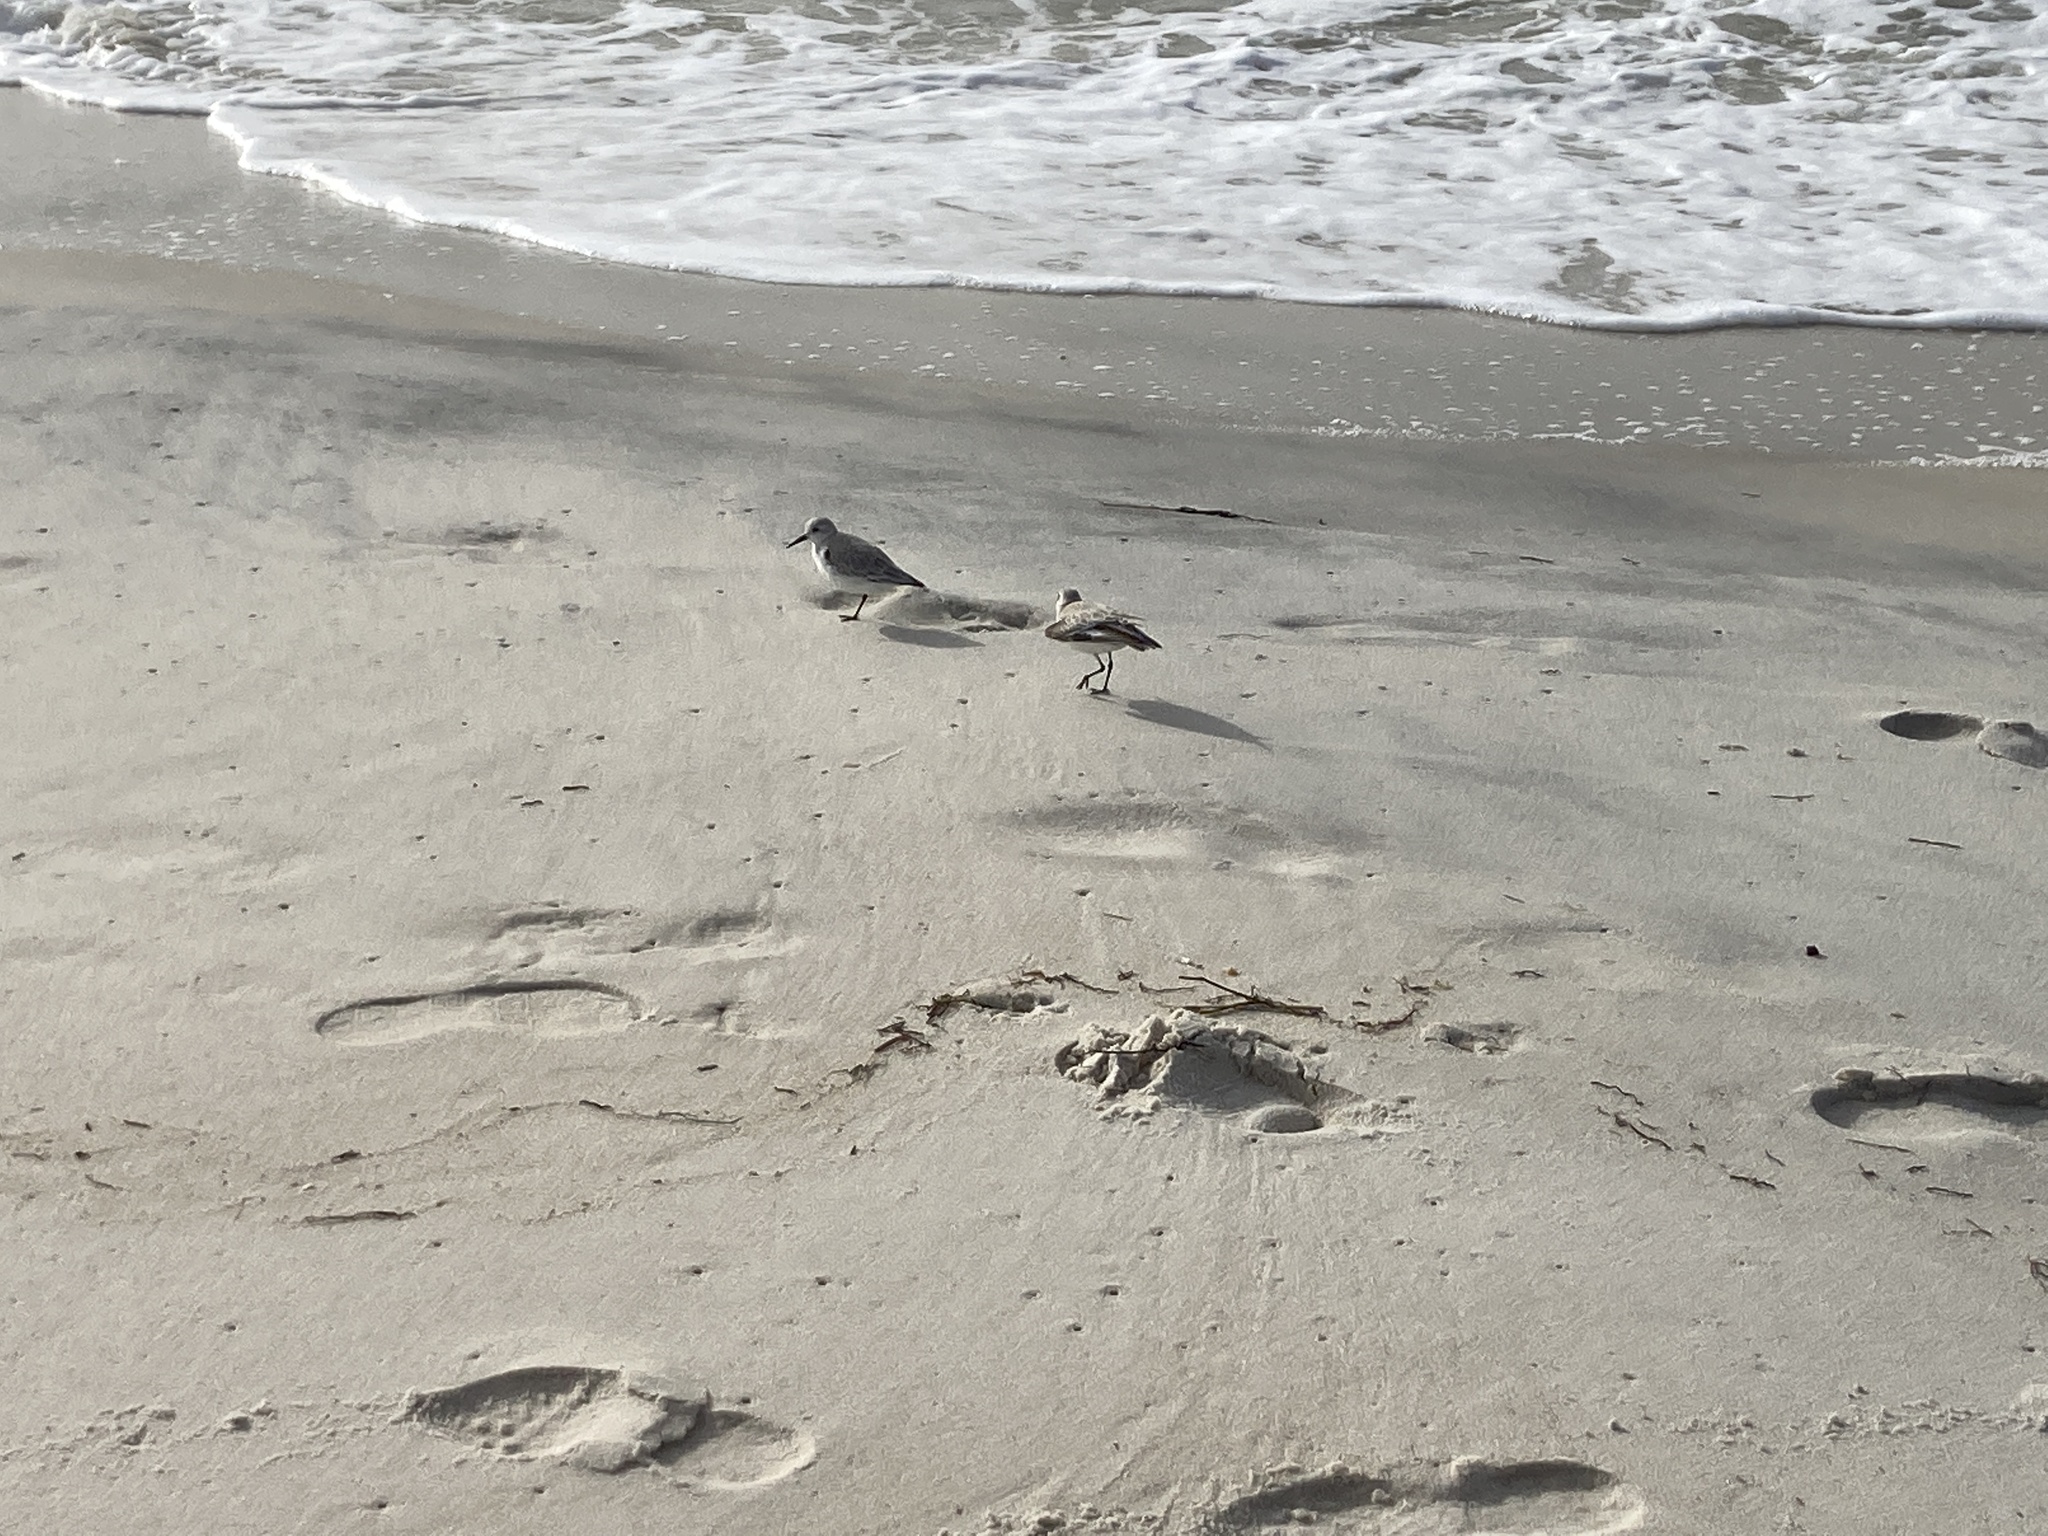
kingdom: Animalia
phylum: Chordata
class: Aves
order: Charadriiformes
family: Scolopacidae
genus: Calidris
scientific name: Calidris alba
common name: Sanderling
